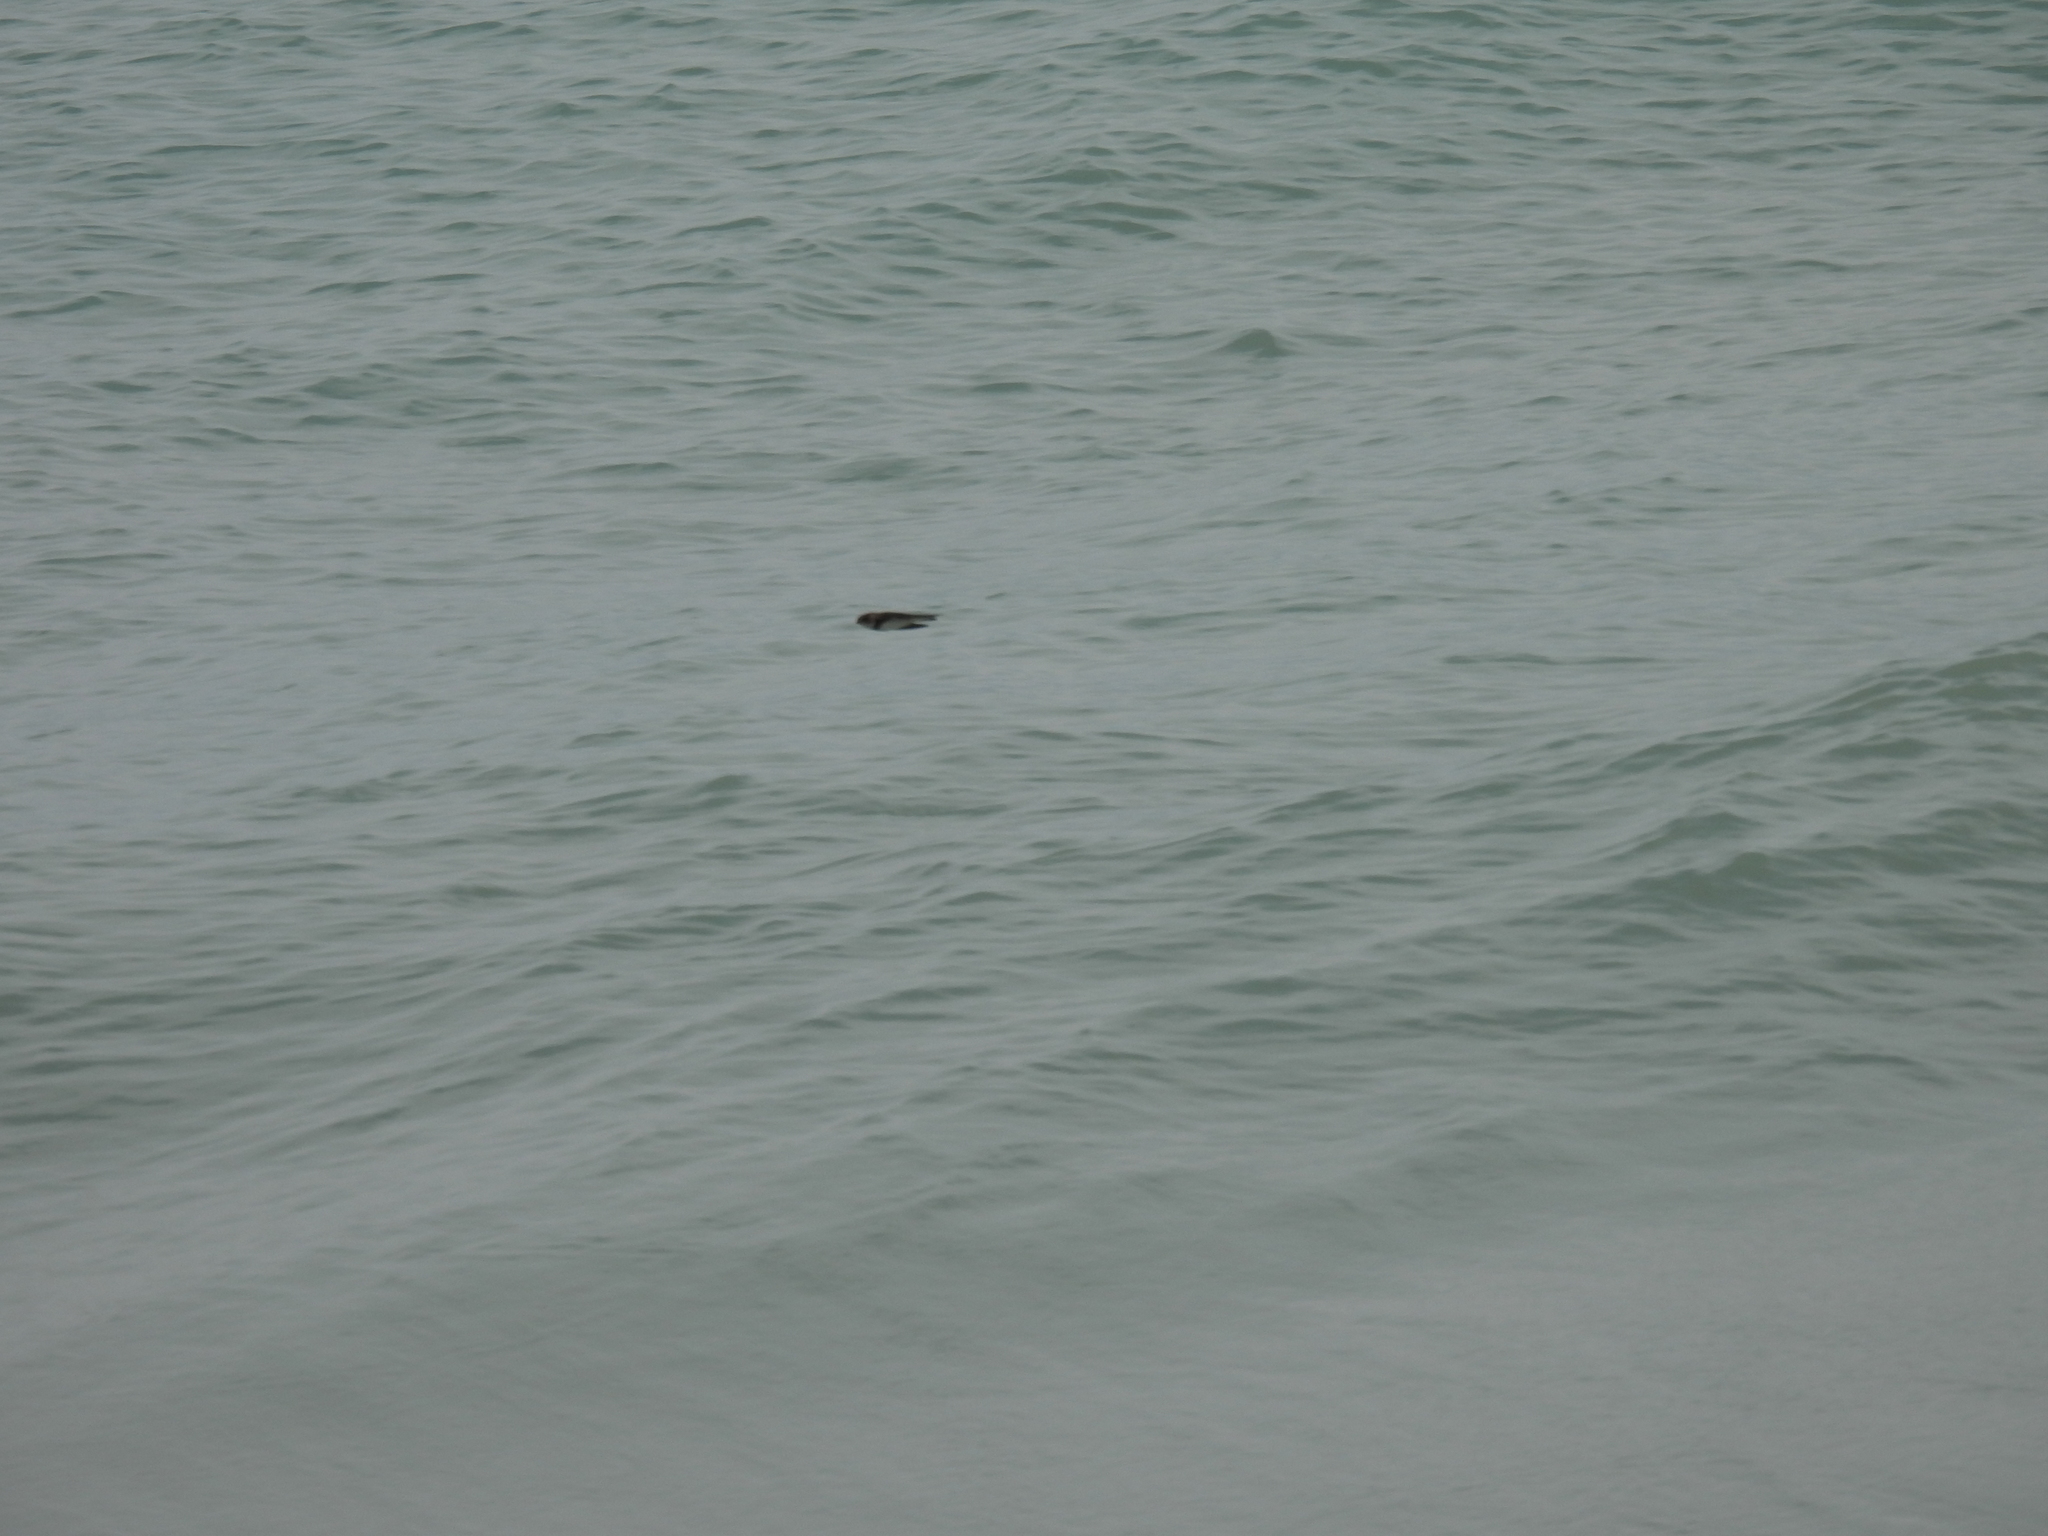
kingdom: Animalia
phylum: Chordata
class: Aves
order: Passeriformes
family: Hirundinidae
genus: Riparia
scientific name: Riparia riparia
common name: Sand martin
